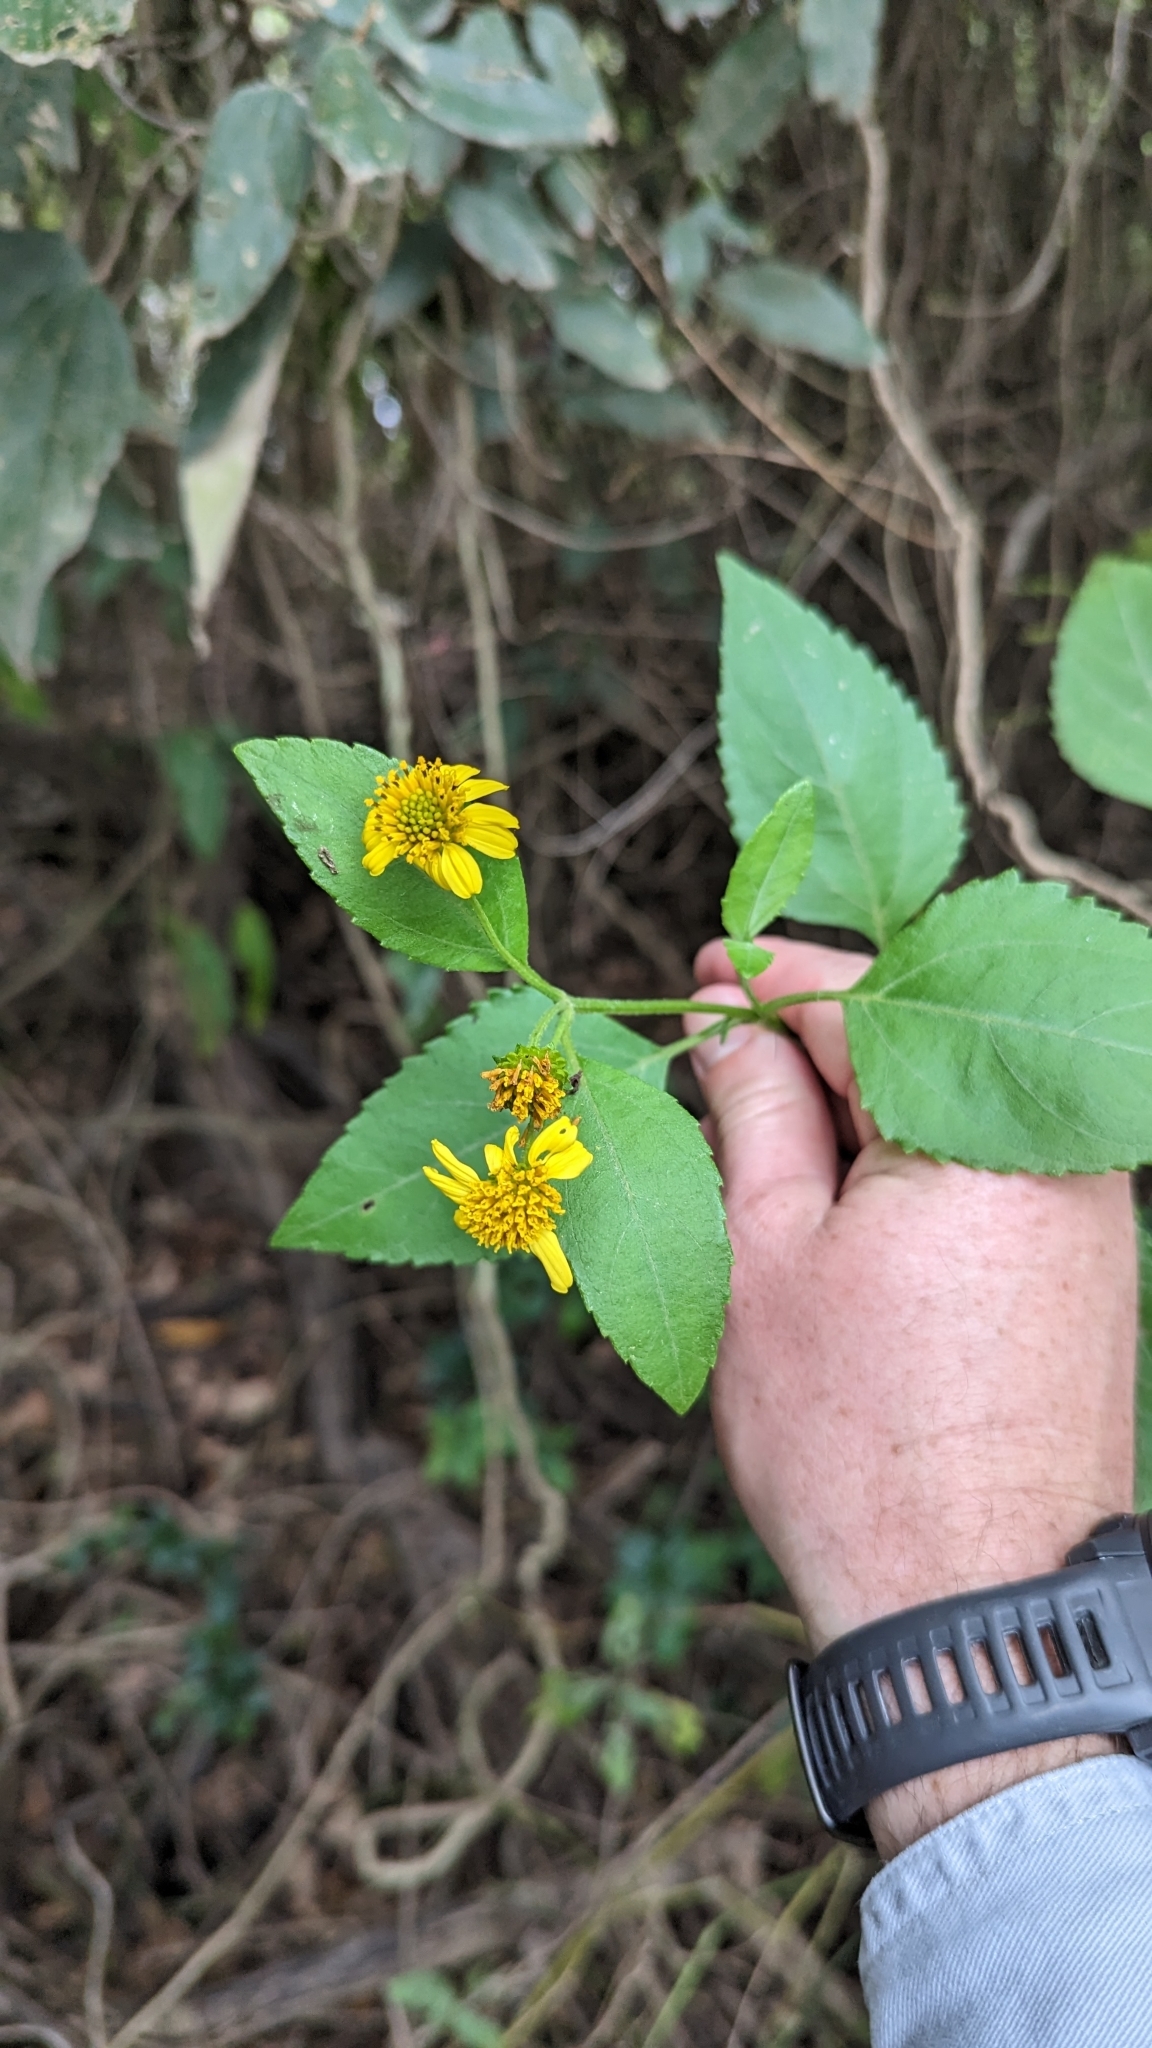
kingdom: Plantae
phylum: Tracheophyta
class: Magnoliopsida
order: Asterales
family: Asteraceae
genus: Wollastonia
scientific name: Wollastonia uniflora
